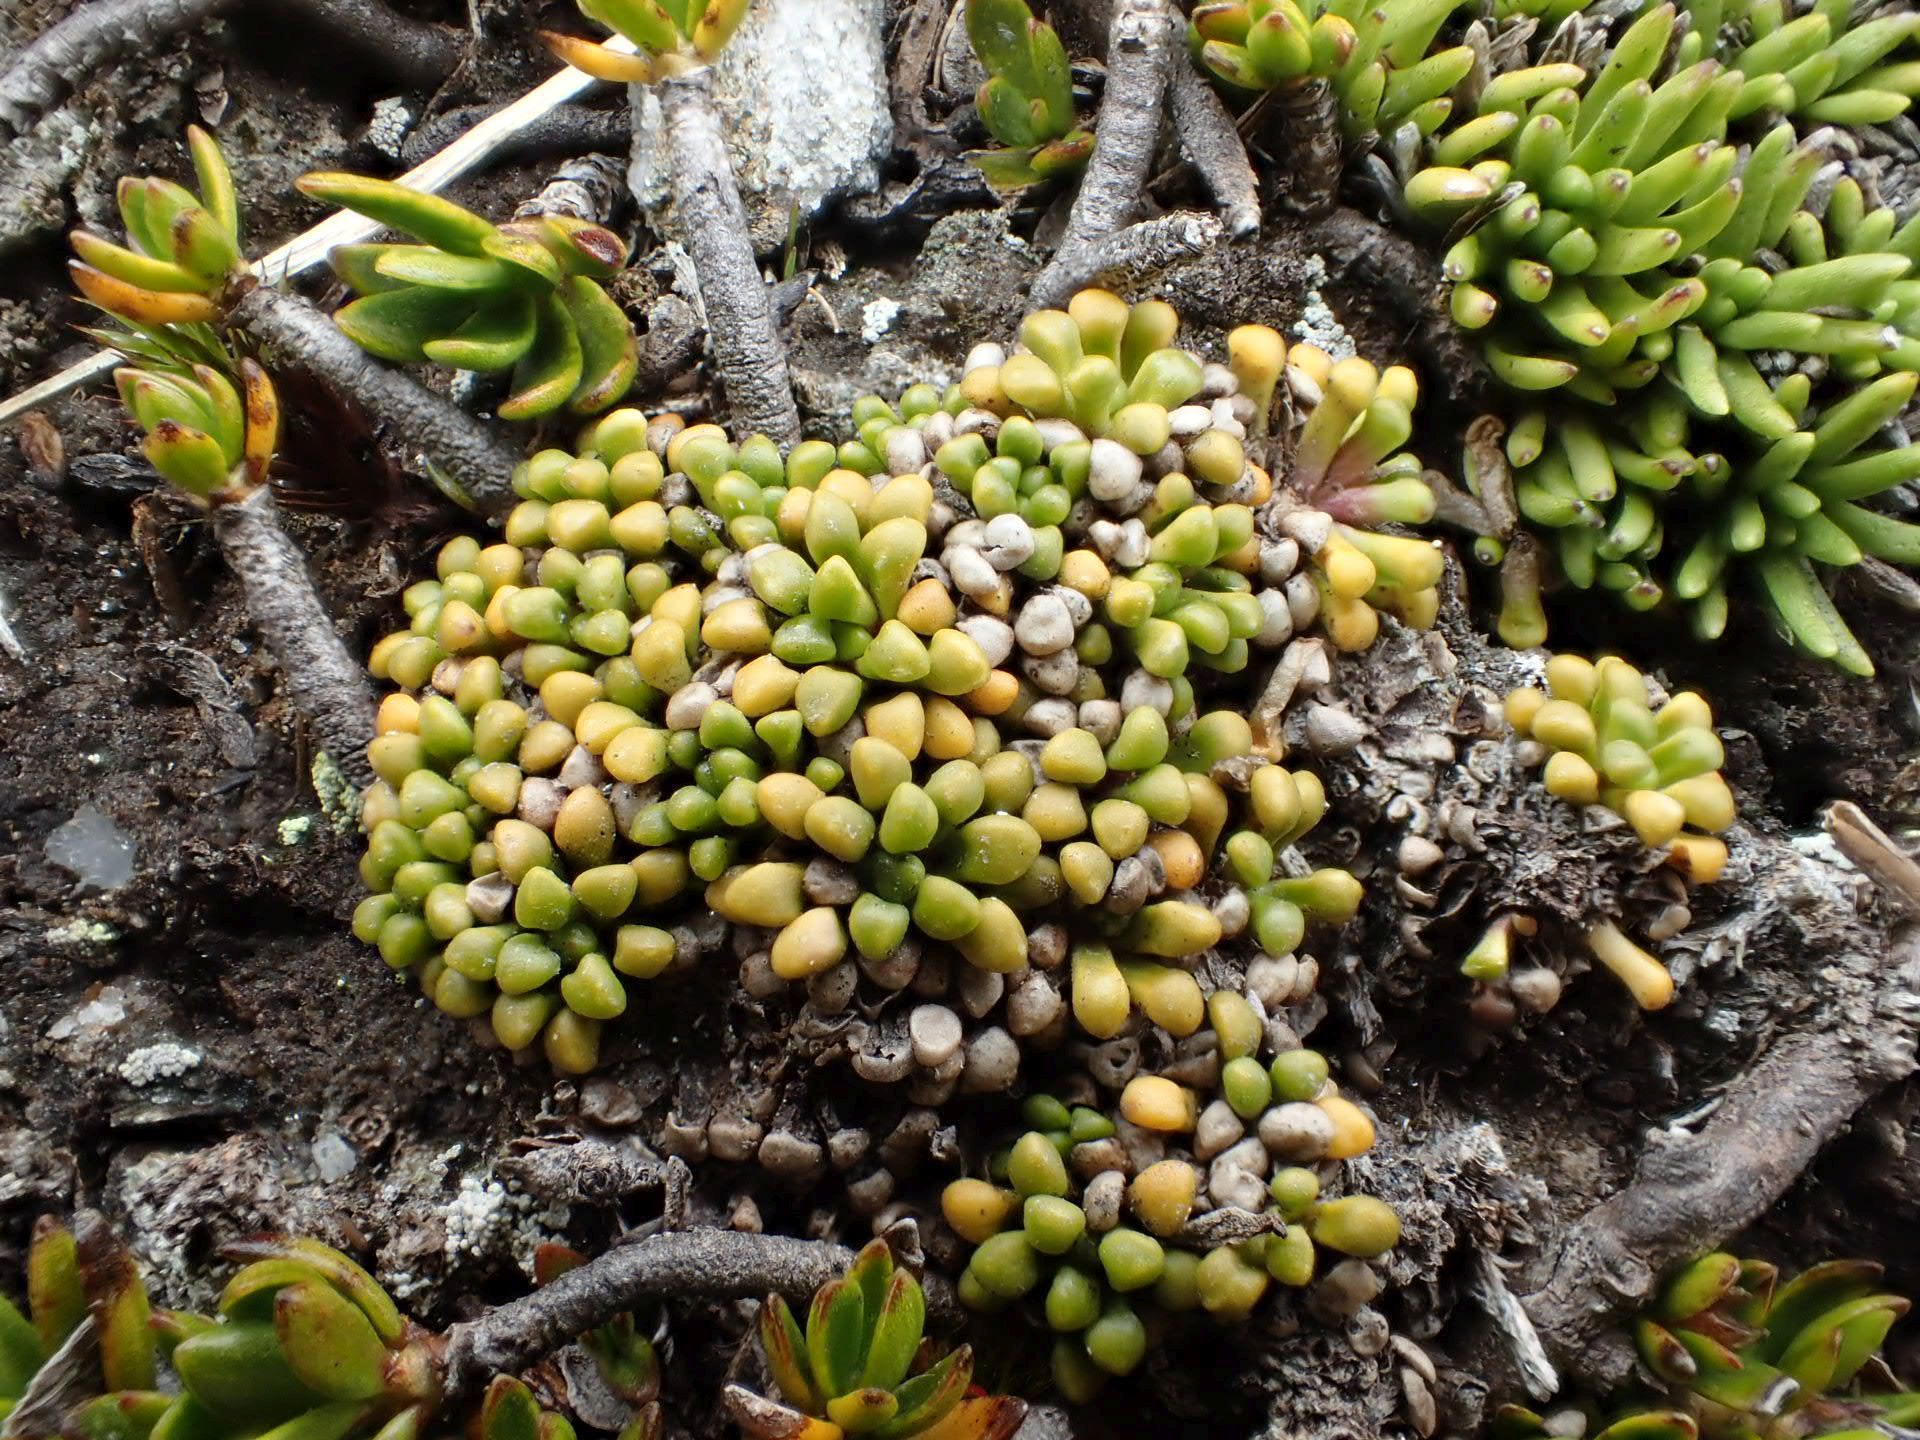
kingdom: Plantae
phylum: Tracheophyta
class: Magnoliopsida
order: Asterales
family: Stylidiaceae
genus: Phyllachne
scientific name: Phyllachne rubra
